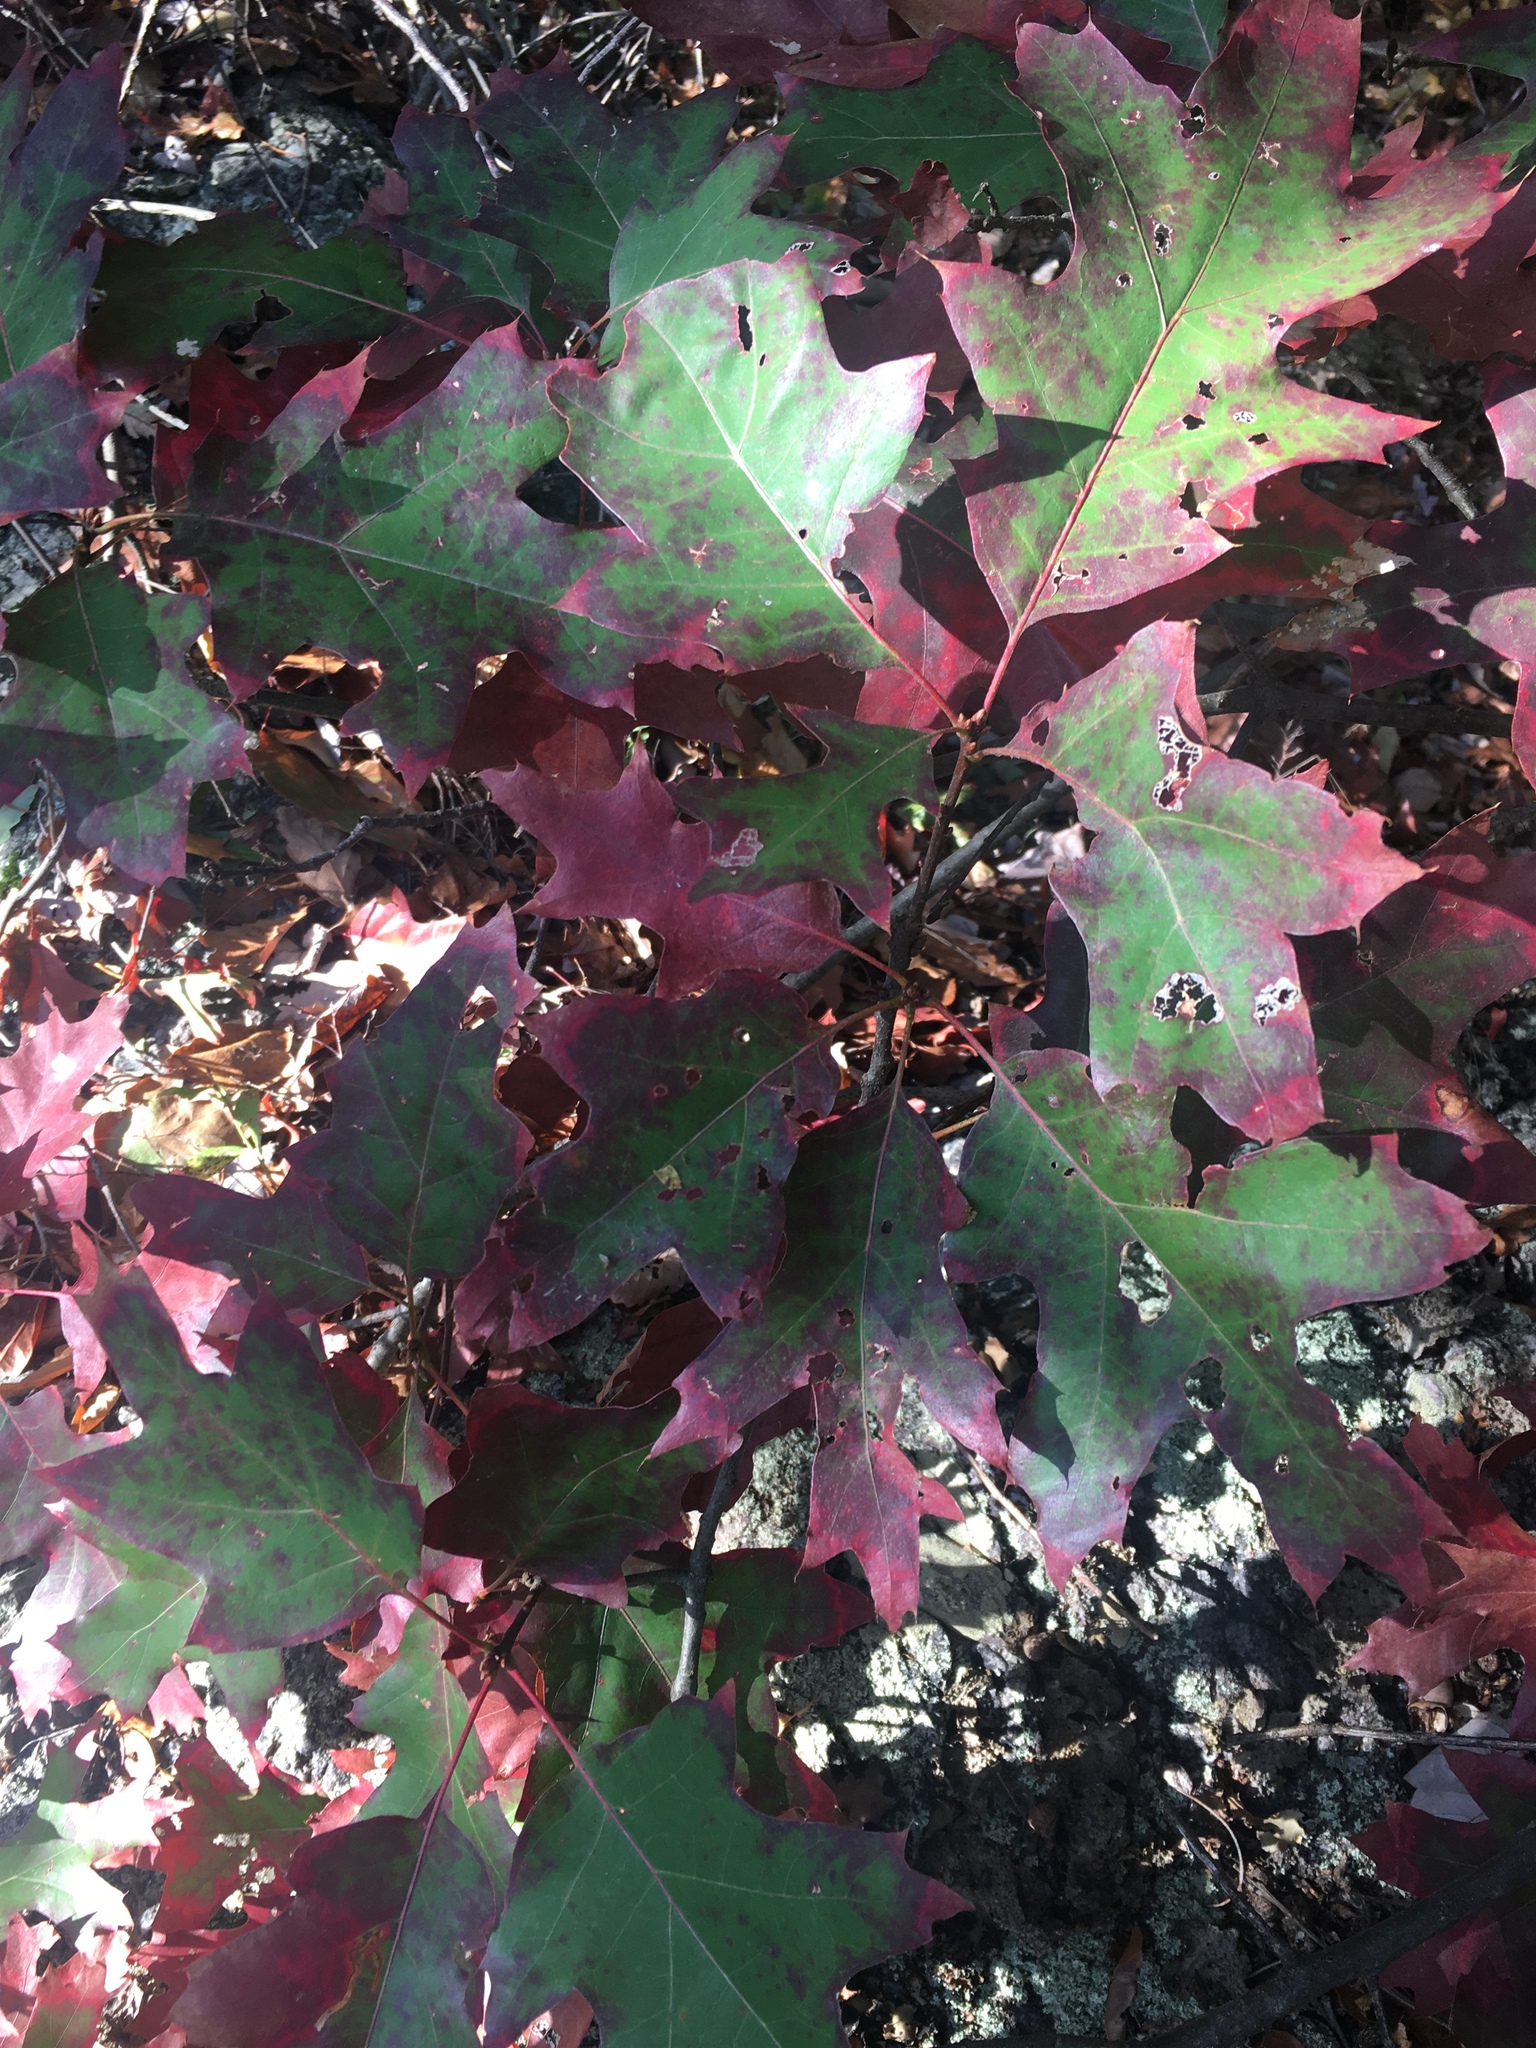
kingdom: Plantae
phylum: Tracheophyta
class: Magnoliopsida
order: Fagales
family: Fagaceae
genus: Quercus
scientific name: Quercus rubra
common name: Red oak
